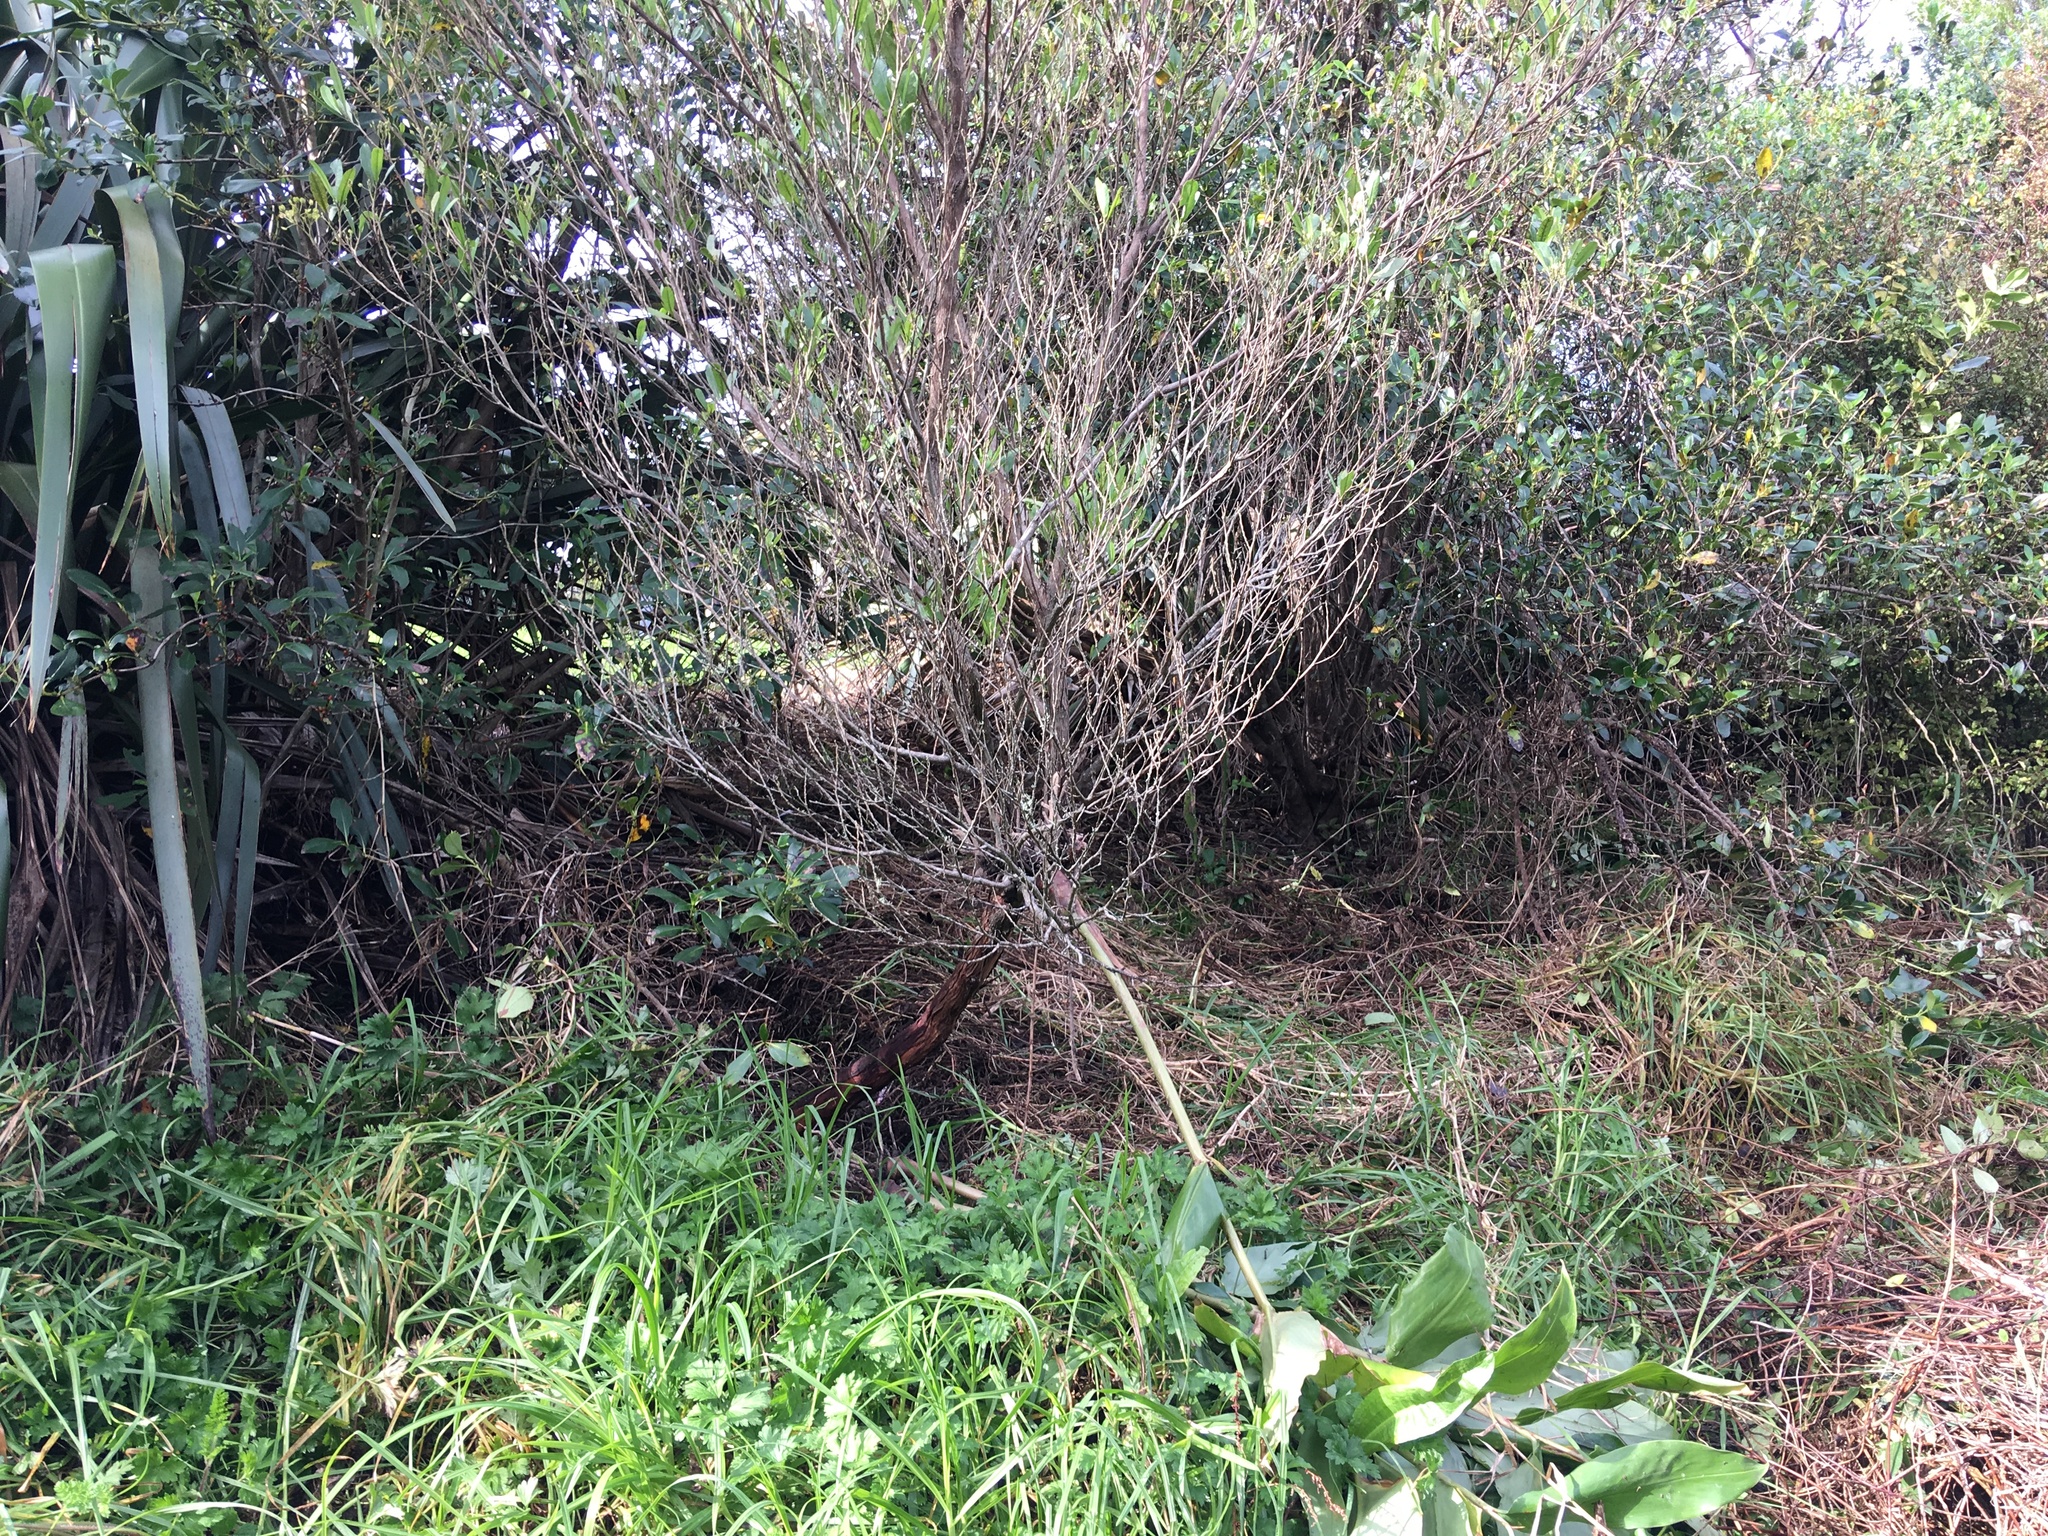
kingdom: Plantae
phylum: Tracheophyta
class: Magnoliopsida
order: Sapindales
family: Sapindaceae
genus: Dodonaea
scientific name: Dodonaea viscosa
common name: Hopbush
